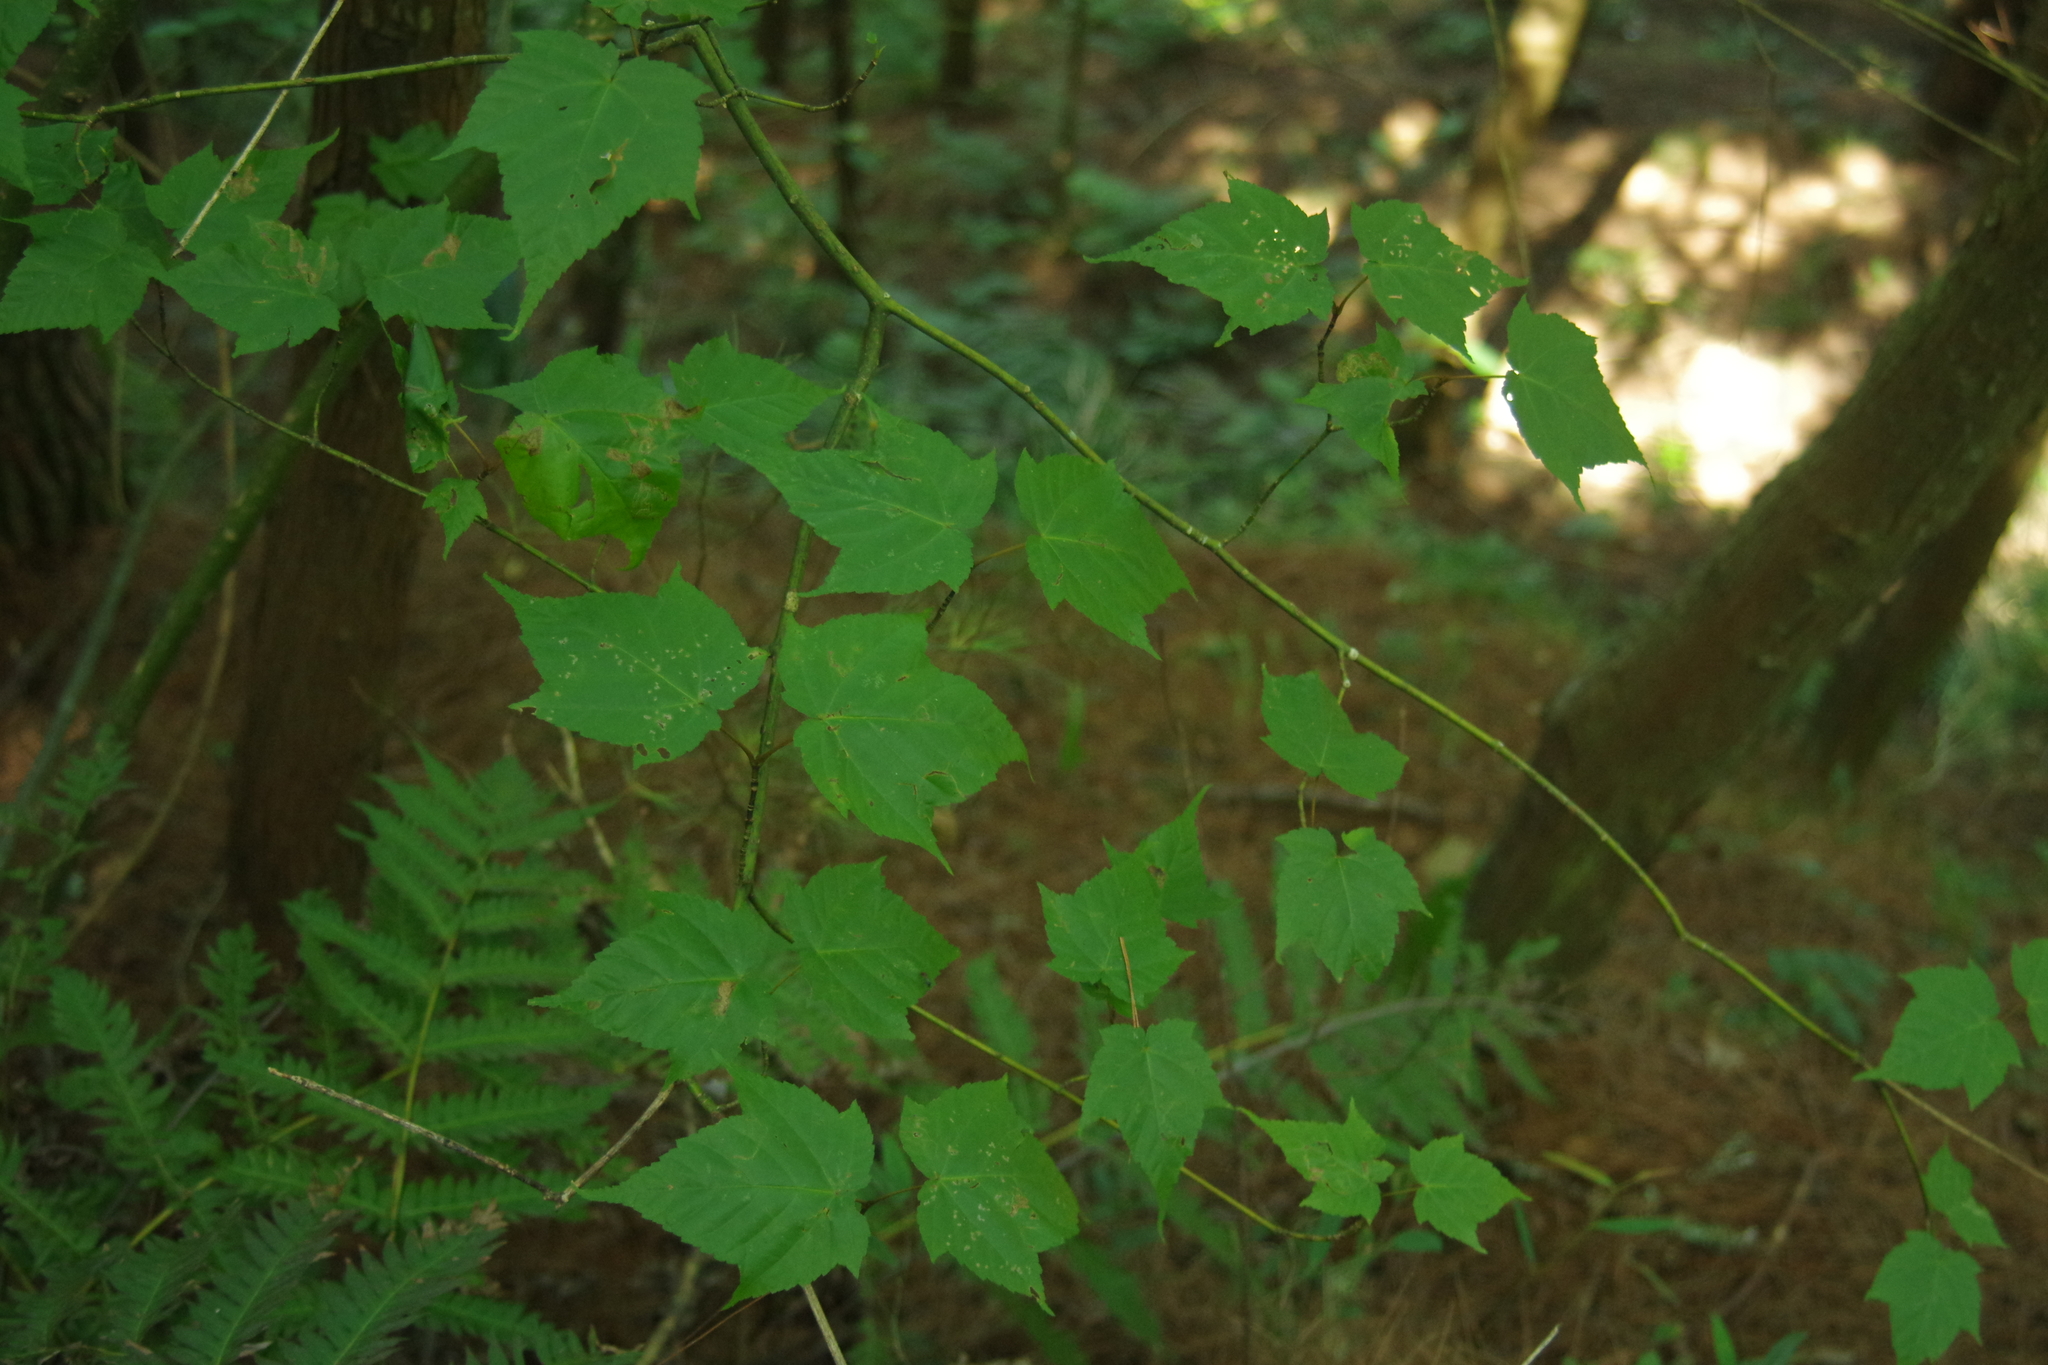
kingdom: Plantae
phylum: Tracheophyta
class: Magnoliopsida
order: Sapindales
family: Sapindaceae
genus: Acer
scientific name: Acer caudatifolium
